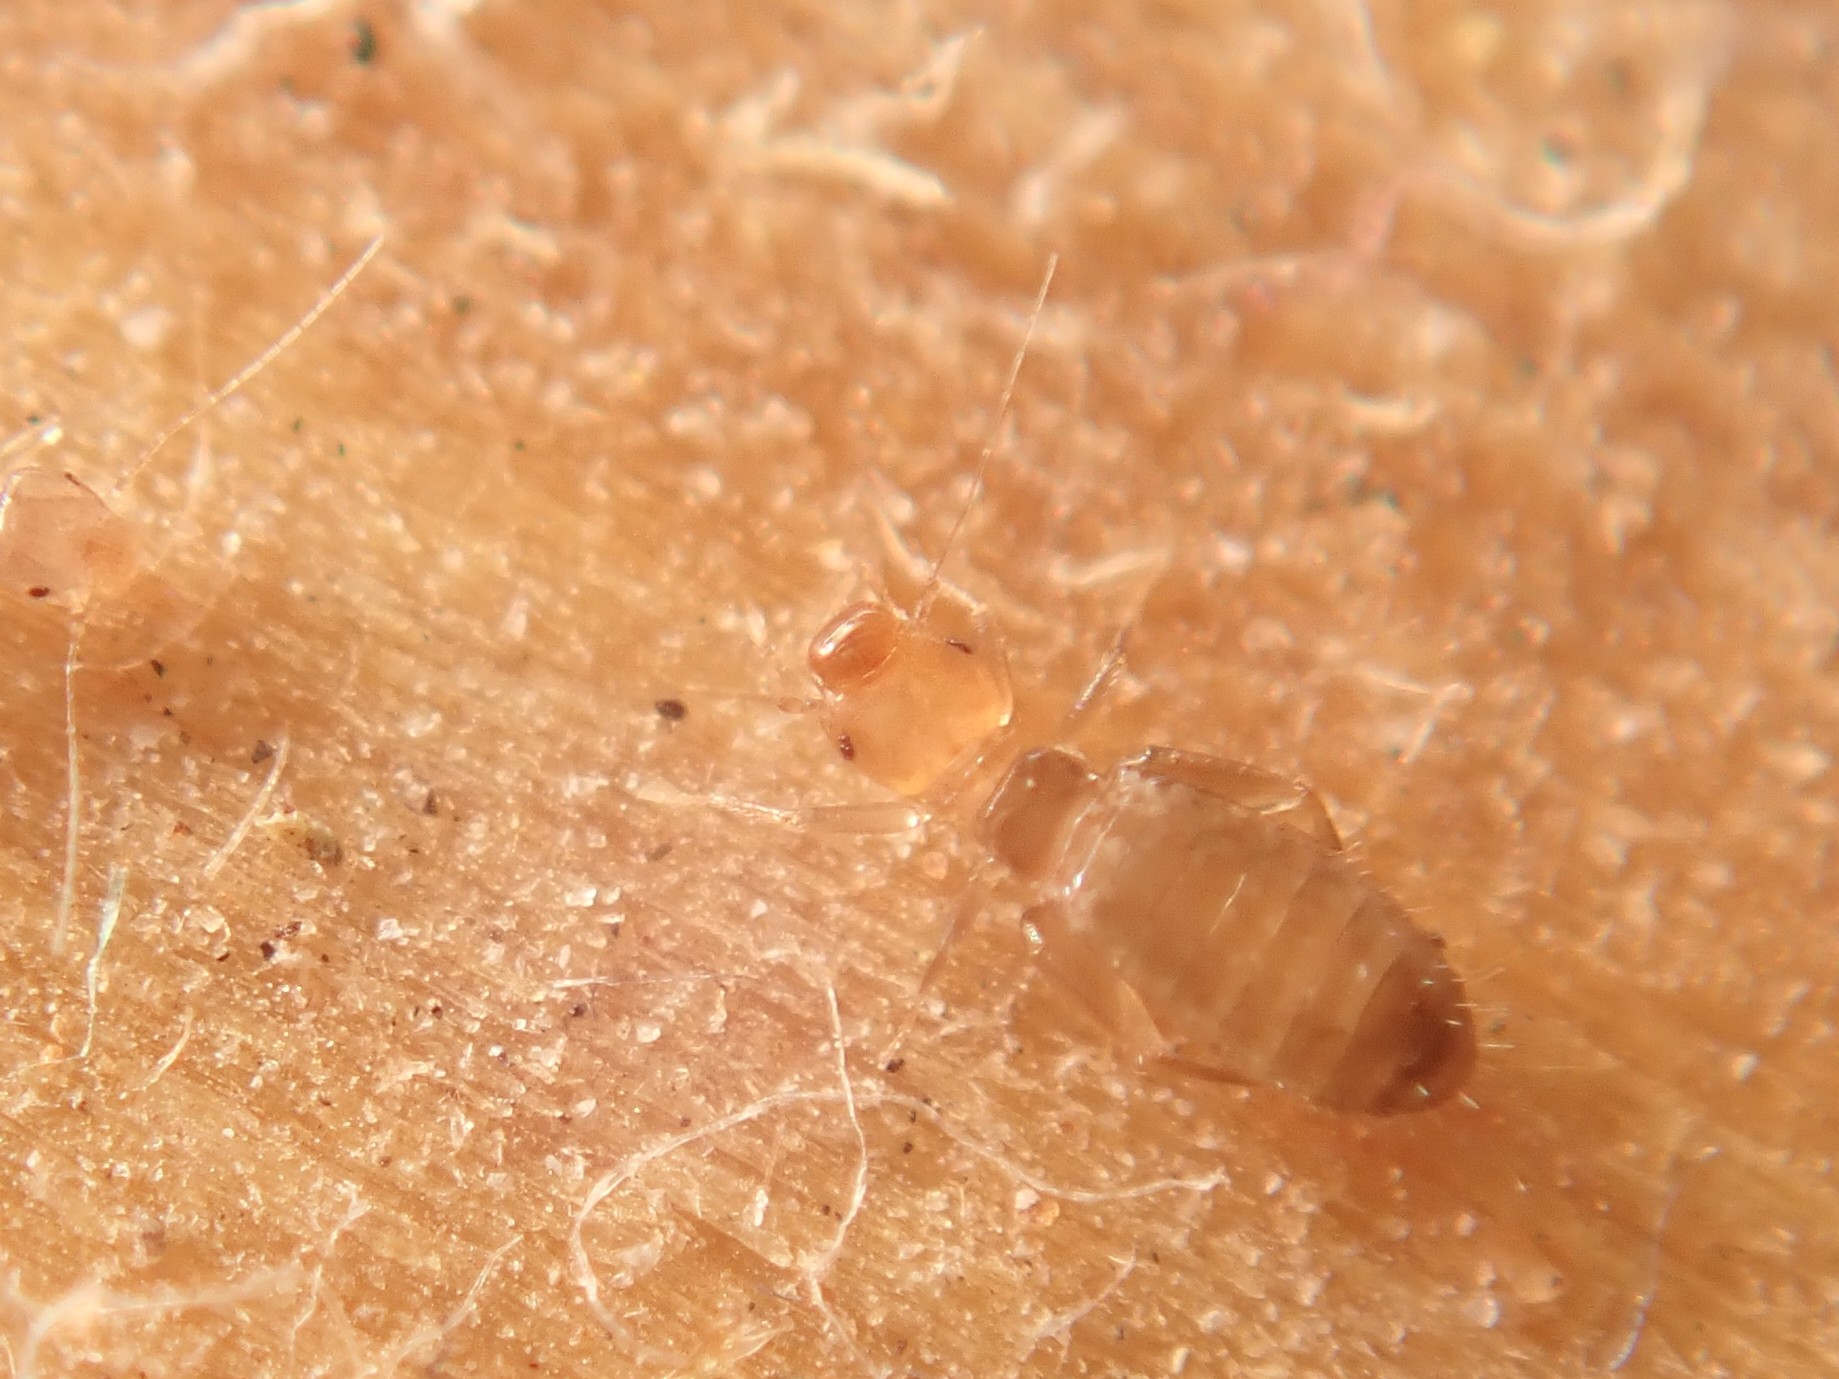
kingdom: Animalia
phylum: Arthropoda
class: Insecta
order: Psocodea
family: Liposcelididae
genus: Liposcelis
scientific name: Liposcelis bostrychophila
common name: Bark lice
